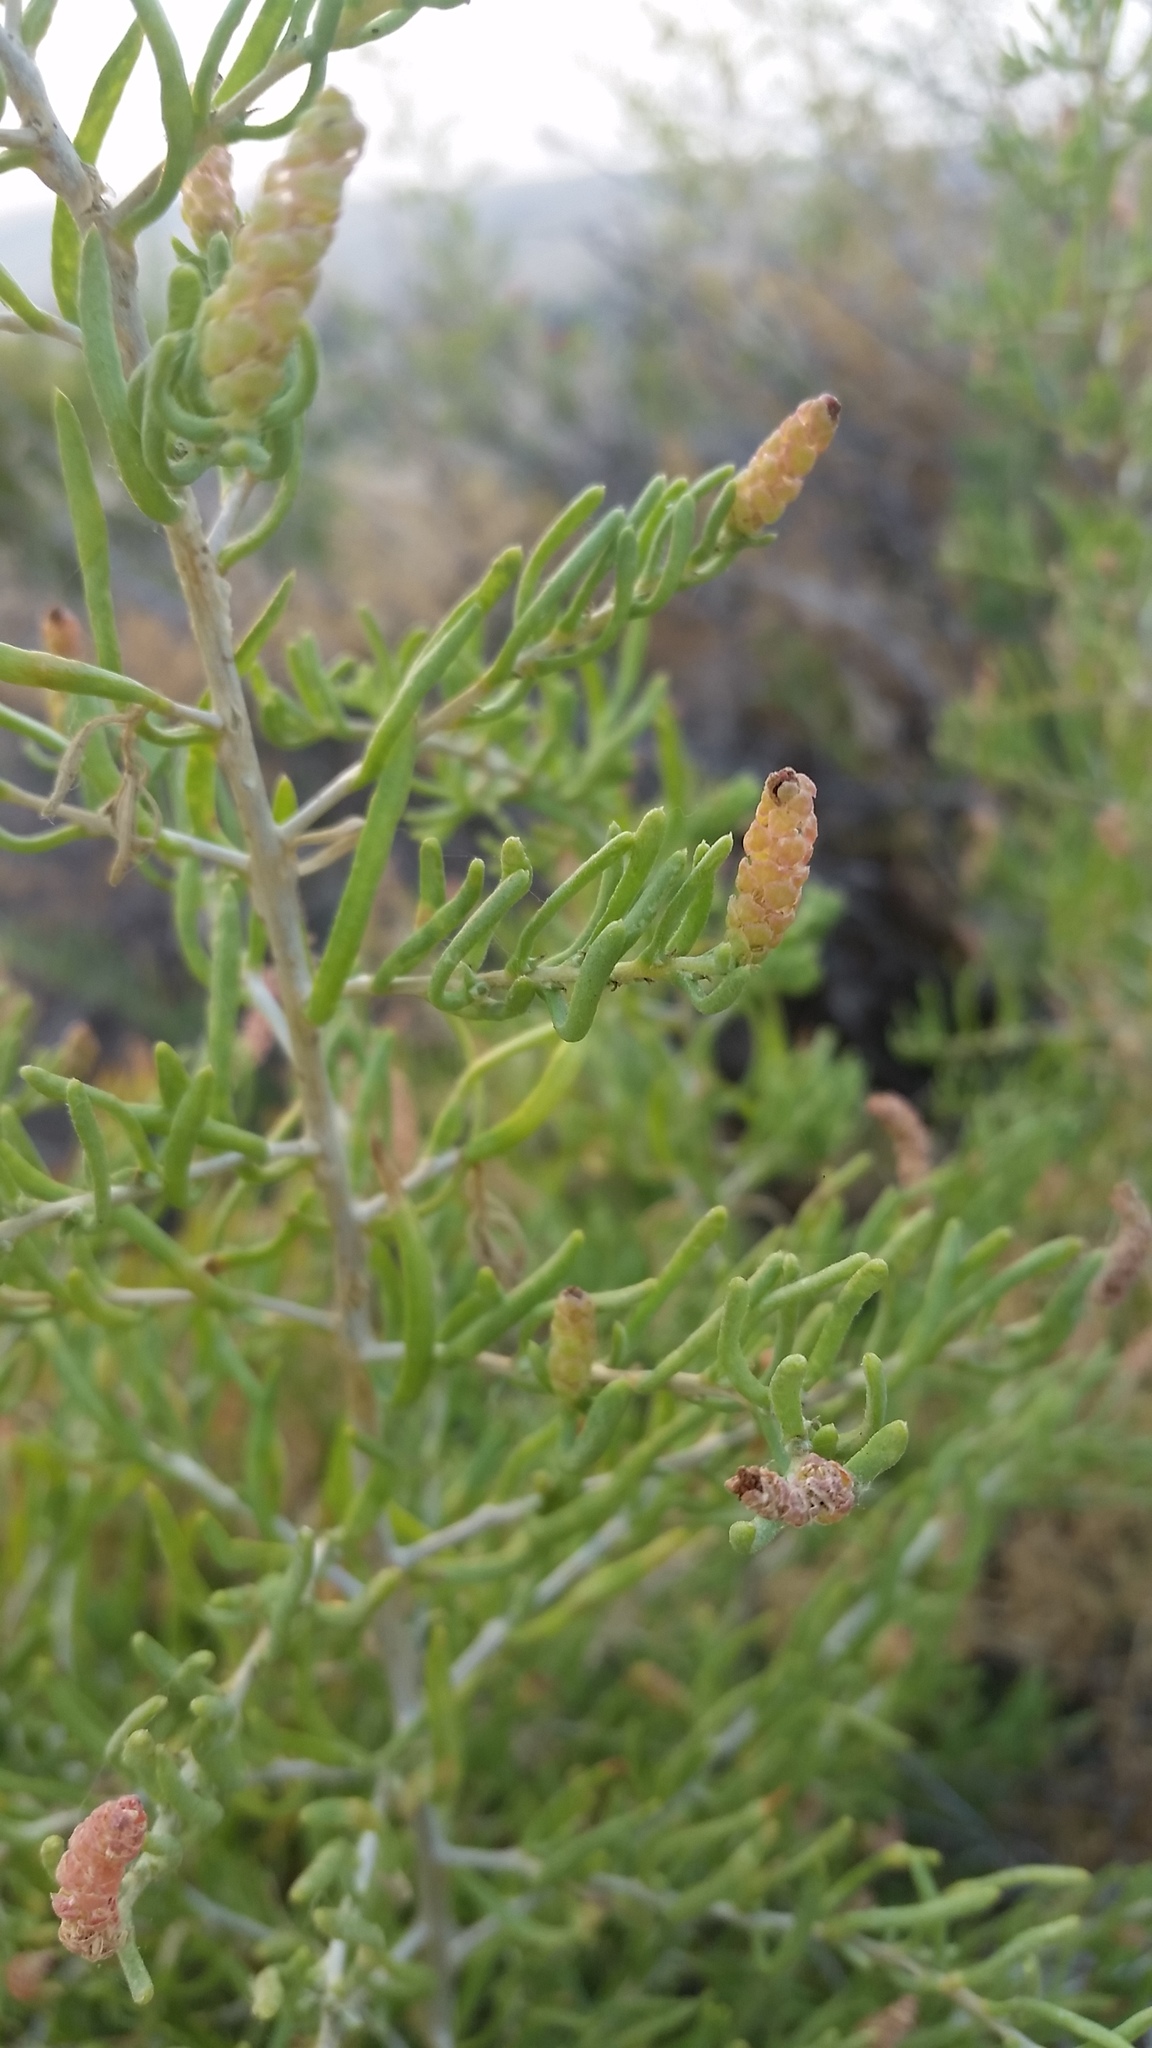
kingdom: Plantae
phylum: Tracheophyta
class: Magnoliopsida
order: Caryophyllales
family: Sarcobataceae
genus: Sarcobatus
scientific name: Sarcobatus vermiculatus
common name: Greasewood
